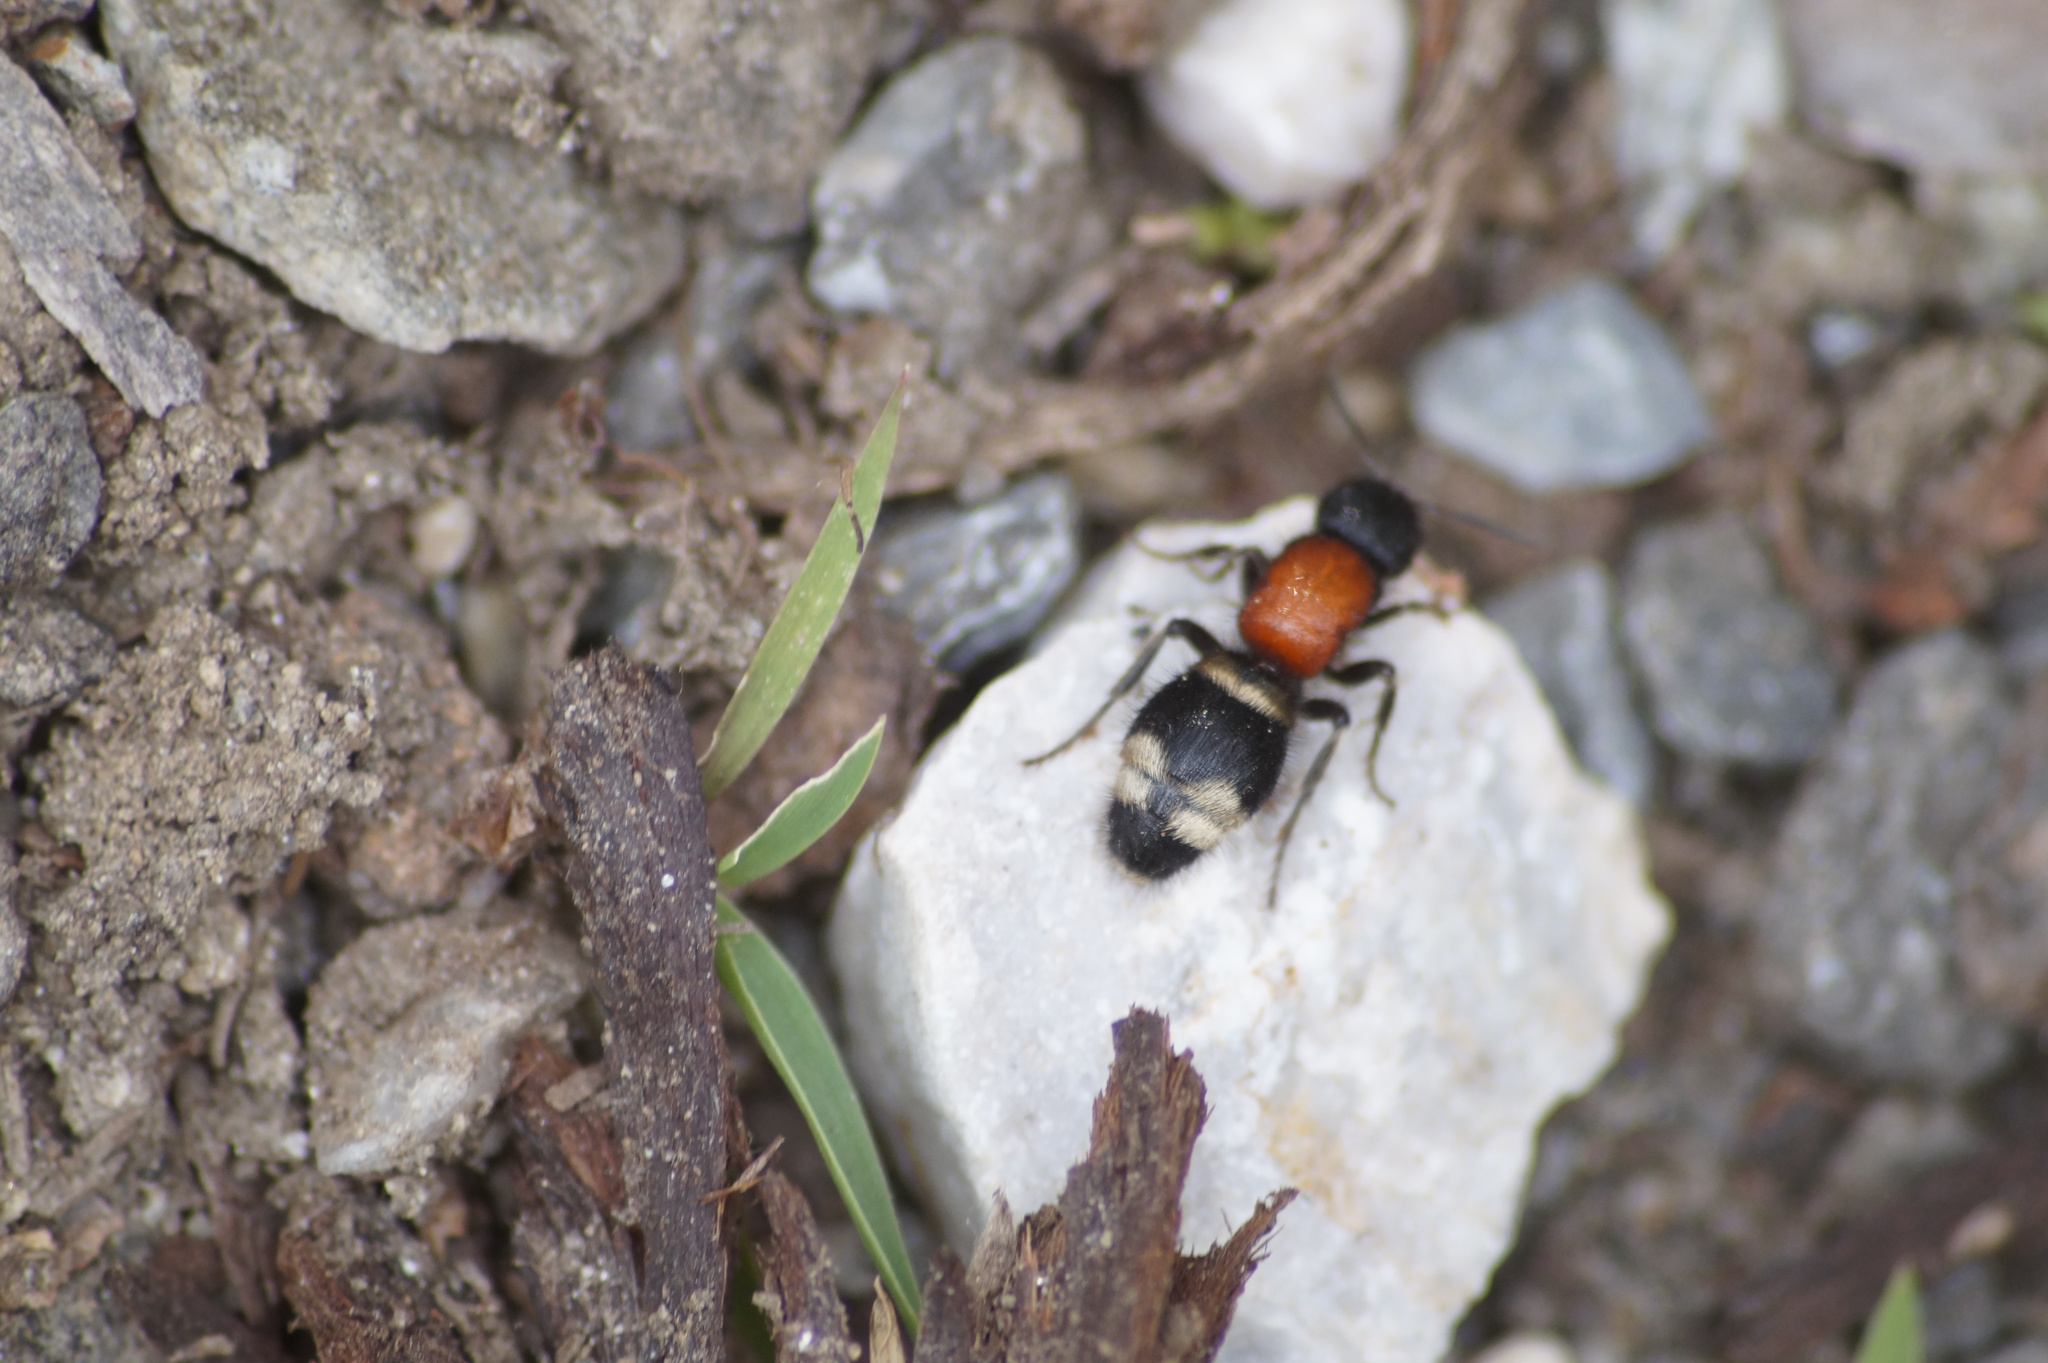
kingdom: Animalia
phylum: Arthropoda
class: Insecta
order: Hymenoptera
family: Mutillidae
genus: Mutilla
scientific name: Mutilla europaea
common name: Large velvet ant
